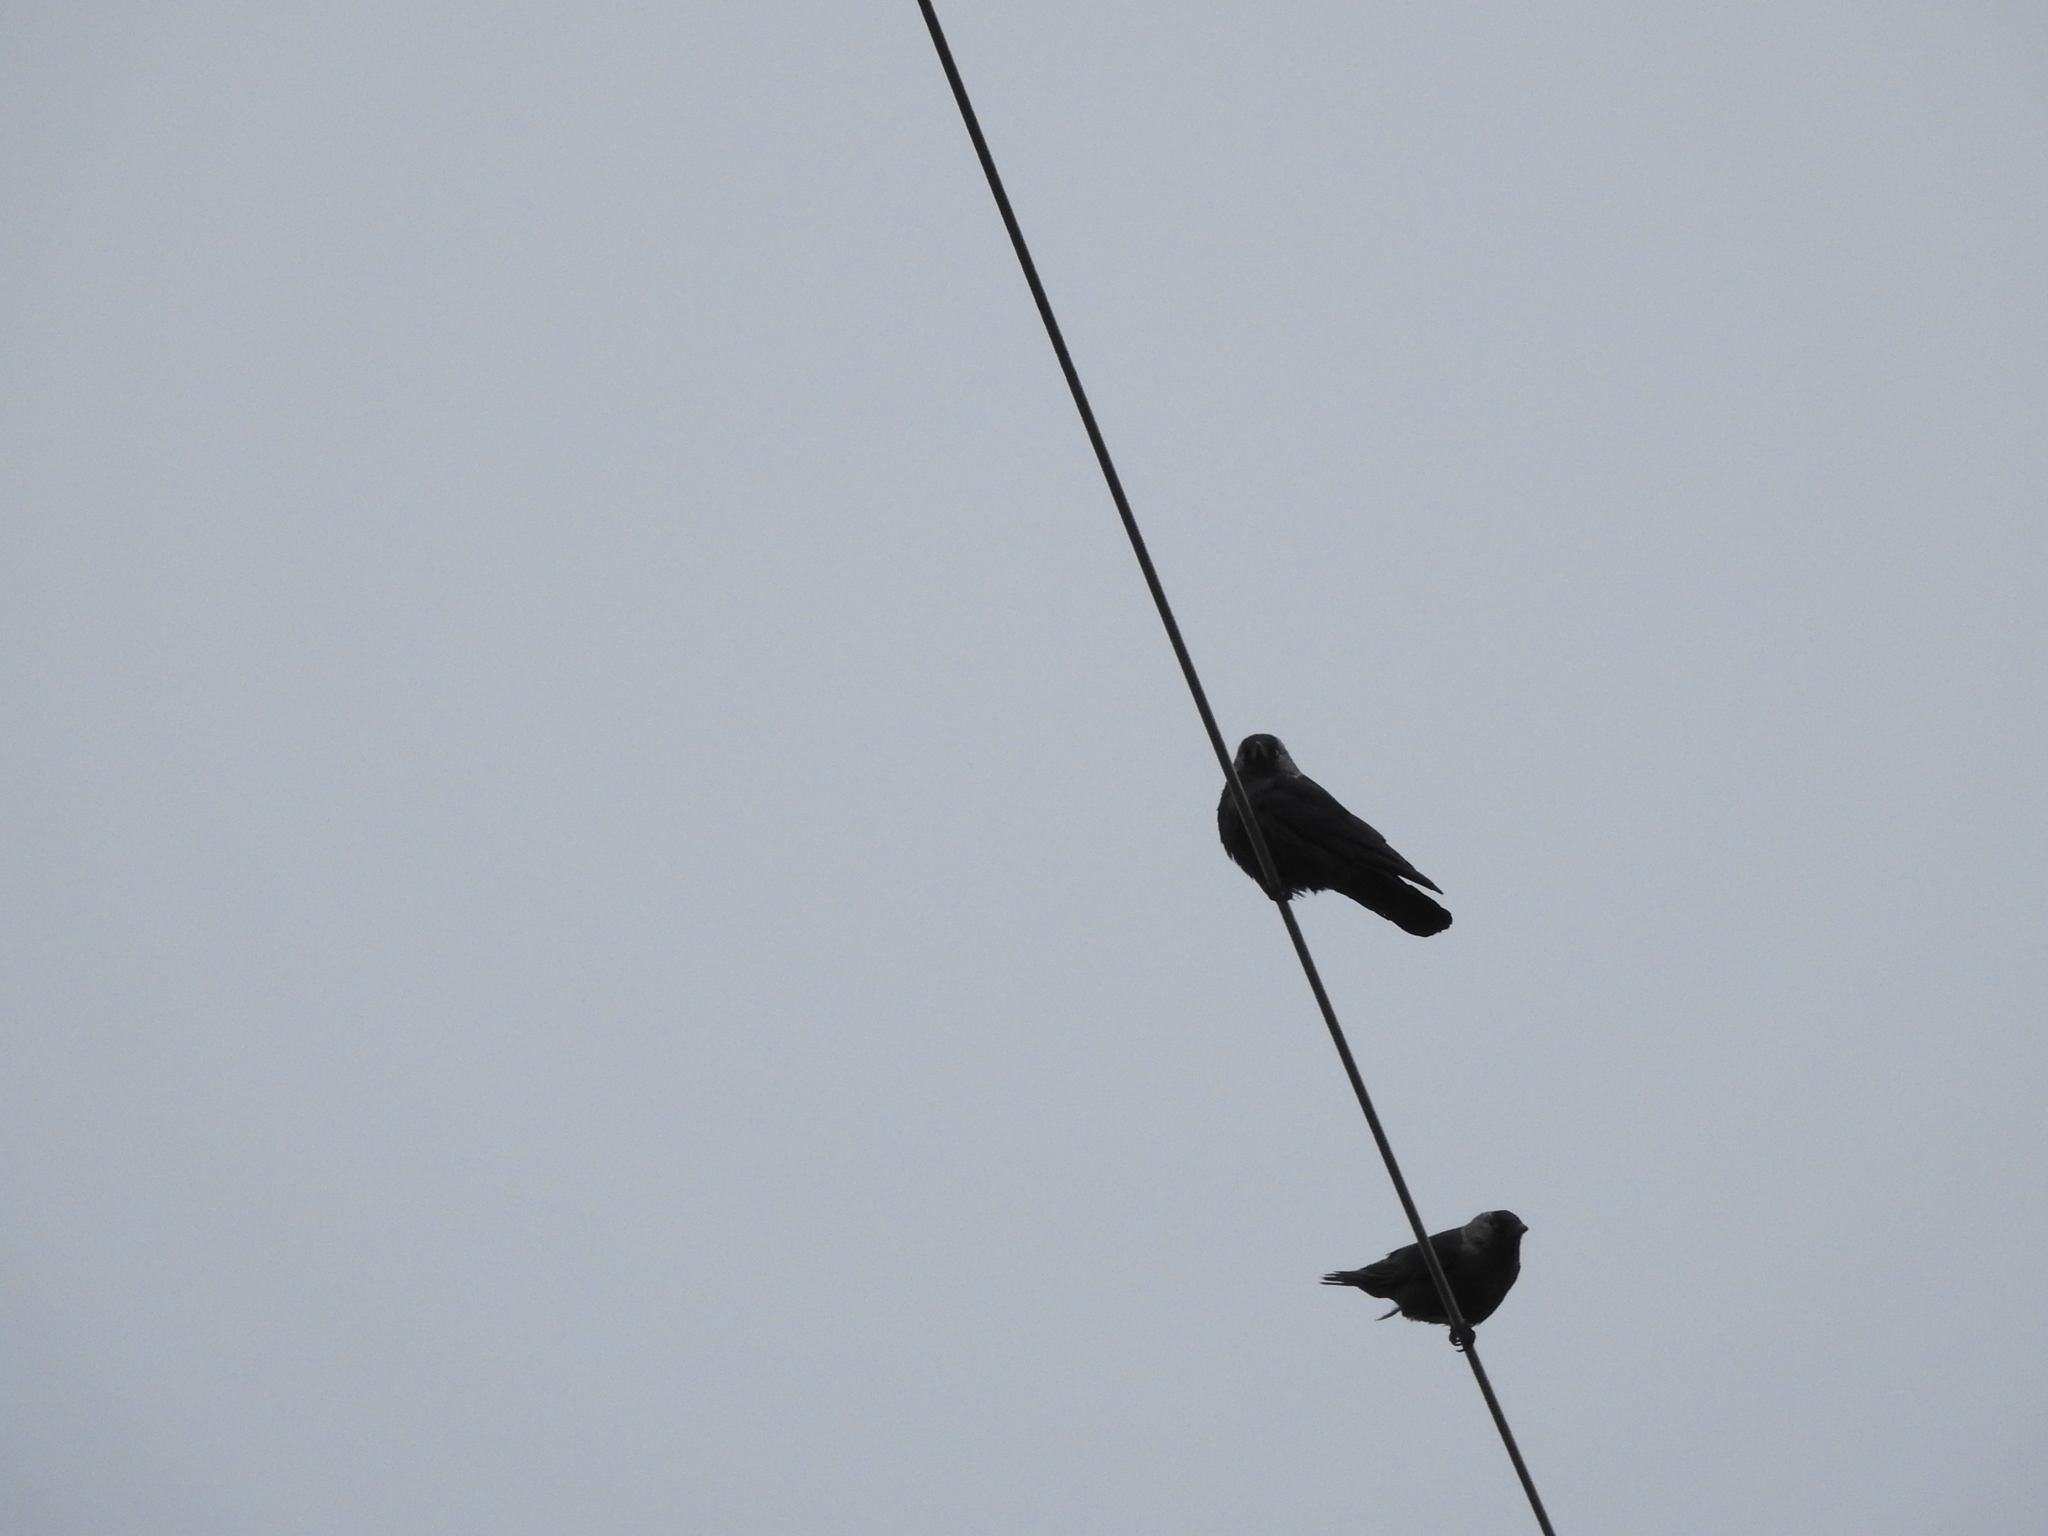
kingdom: Animalia
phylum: Chordata
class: Aves
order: Passeriformes
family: Corvidae
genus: Coloeus
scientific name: Coloeus monedula
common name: Western jackdaw
